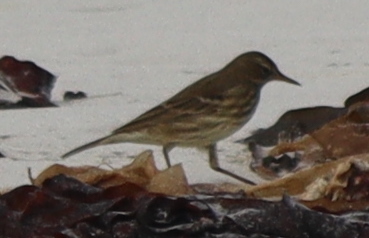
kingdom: Animalia
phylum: Chordata
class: Aves
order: Passeriformes
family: Motacillidae
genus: Anthus
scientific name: Anthus petrosus
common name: Eurasian rock pipit
